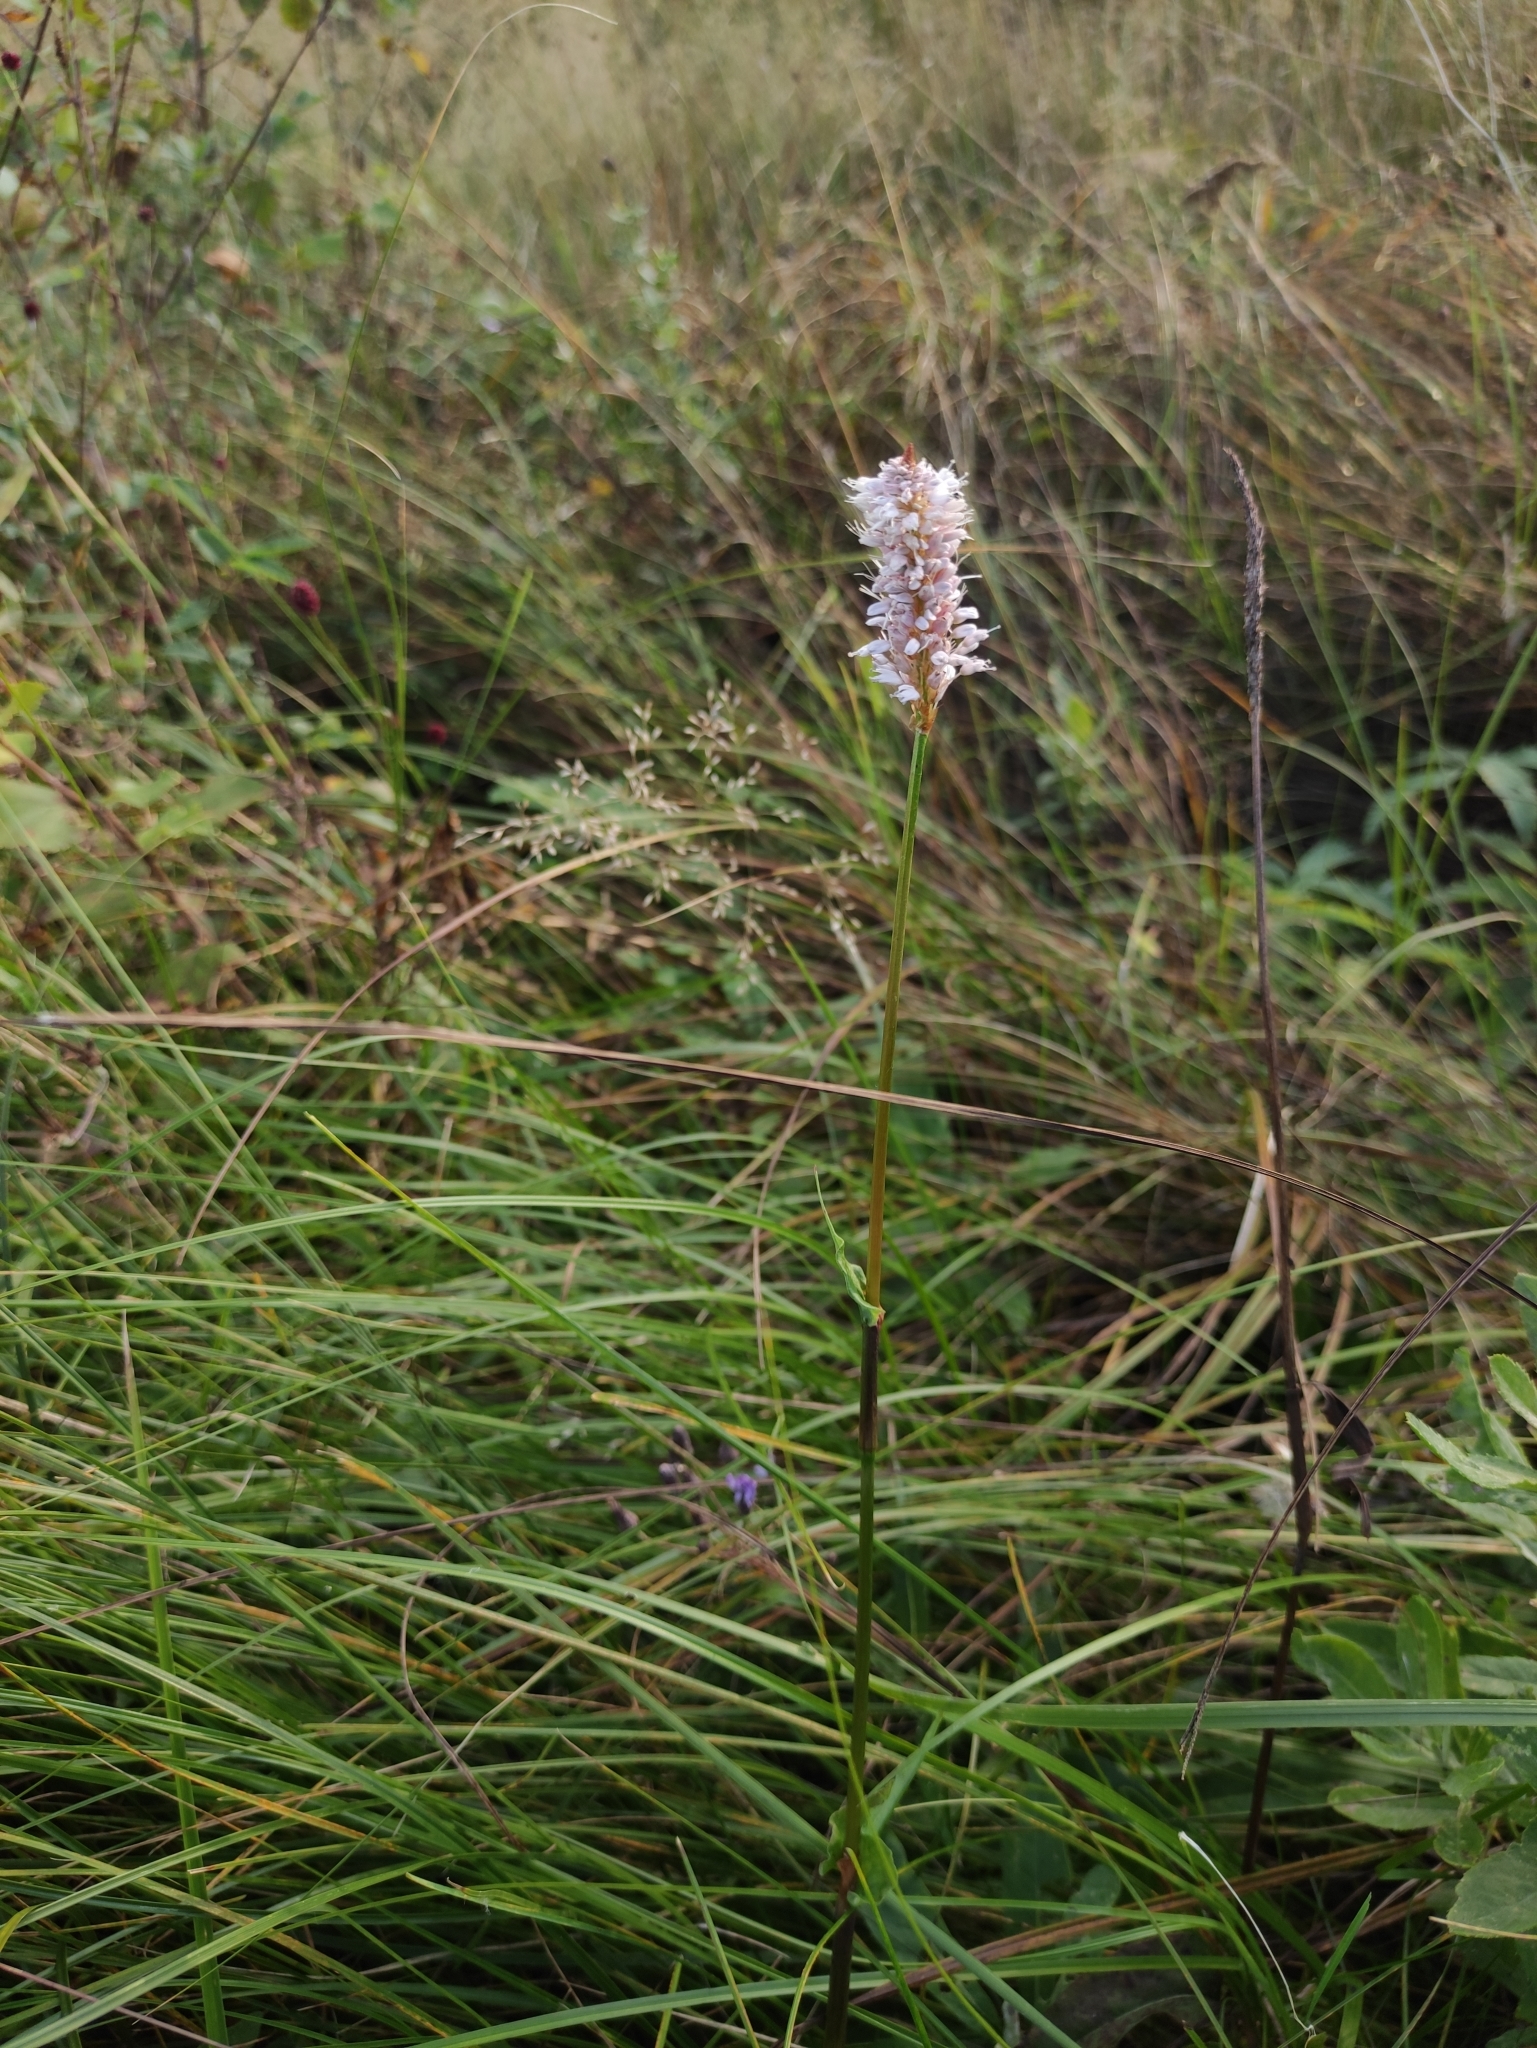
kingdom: Plantae
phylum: Tracheophyta
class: Magnoliopsida
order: Caryophyllales
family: Polygonaceae
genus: Bistorta
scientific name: Bistorta officinalis
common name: Common bistort
